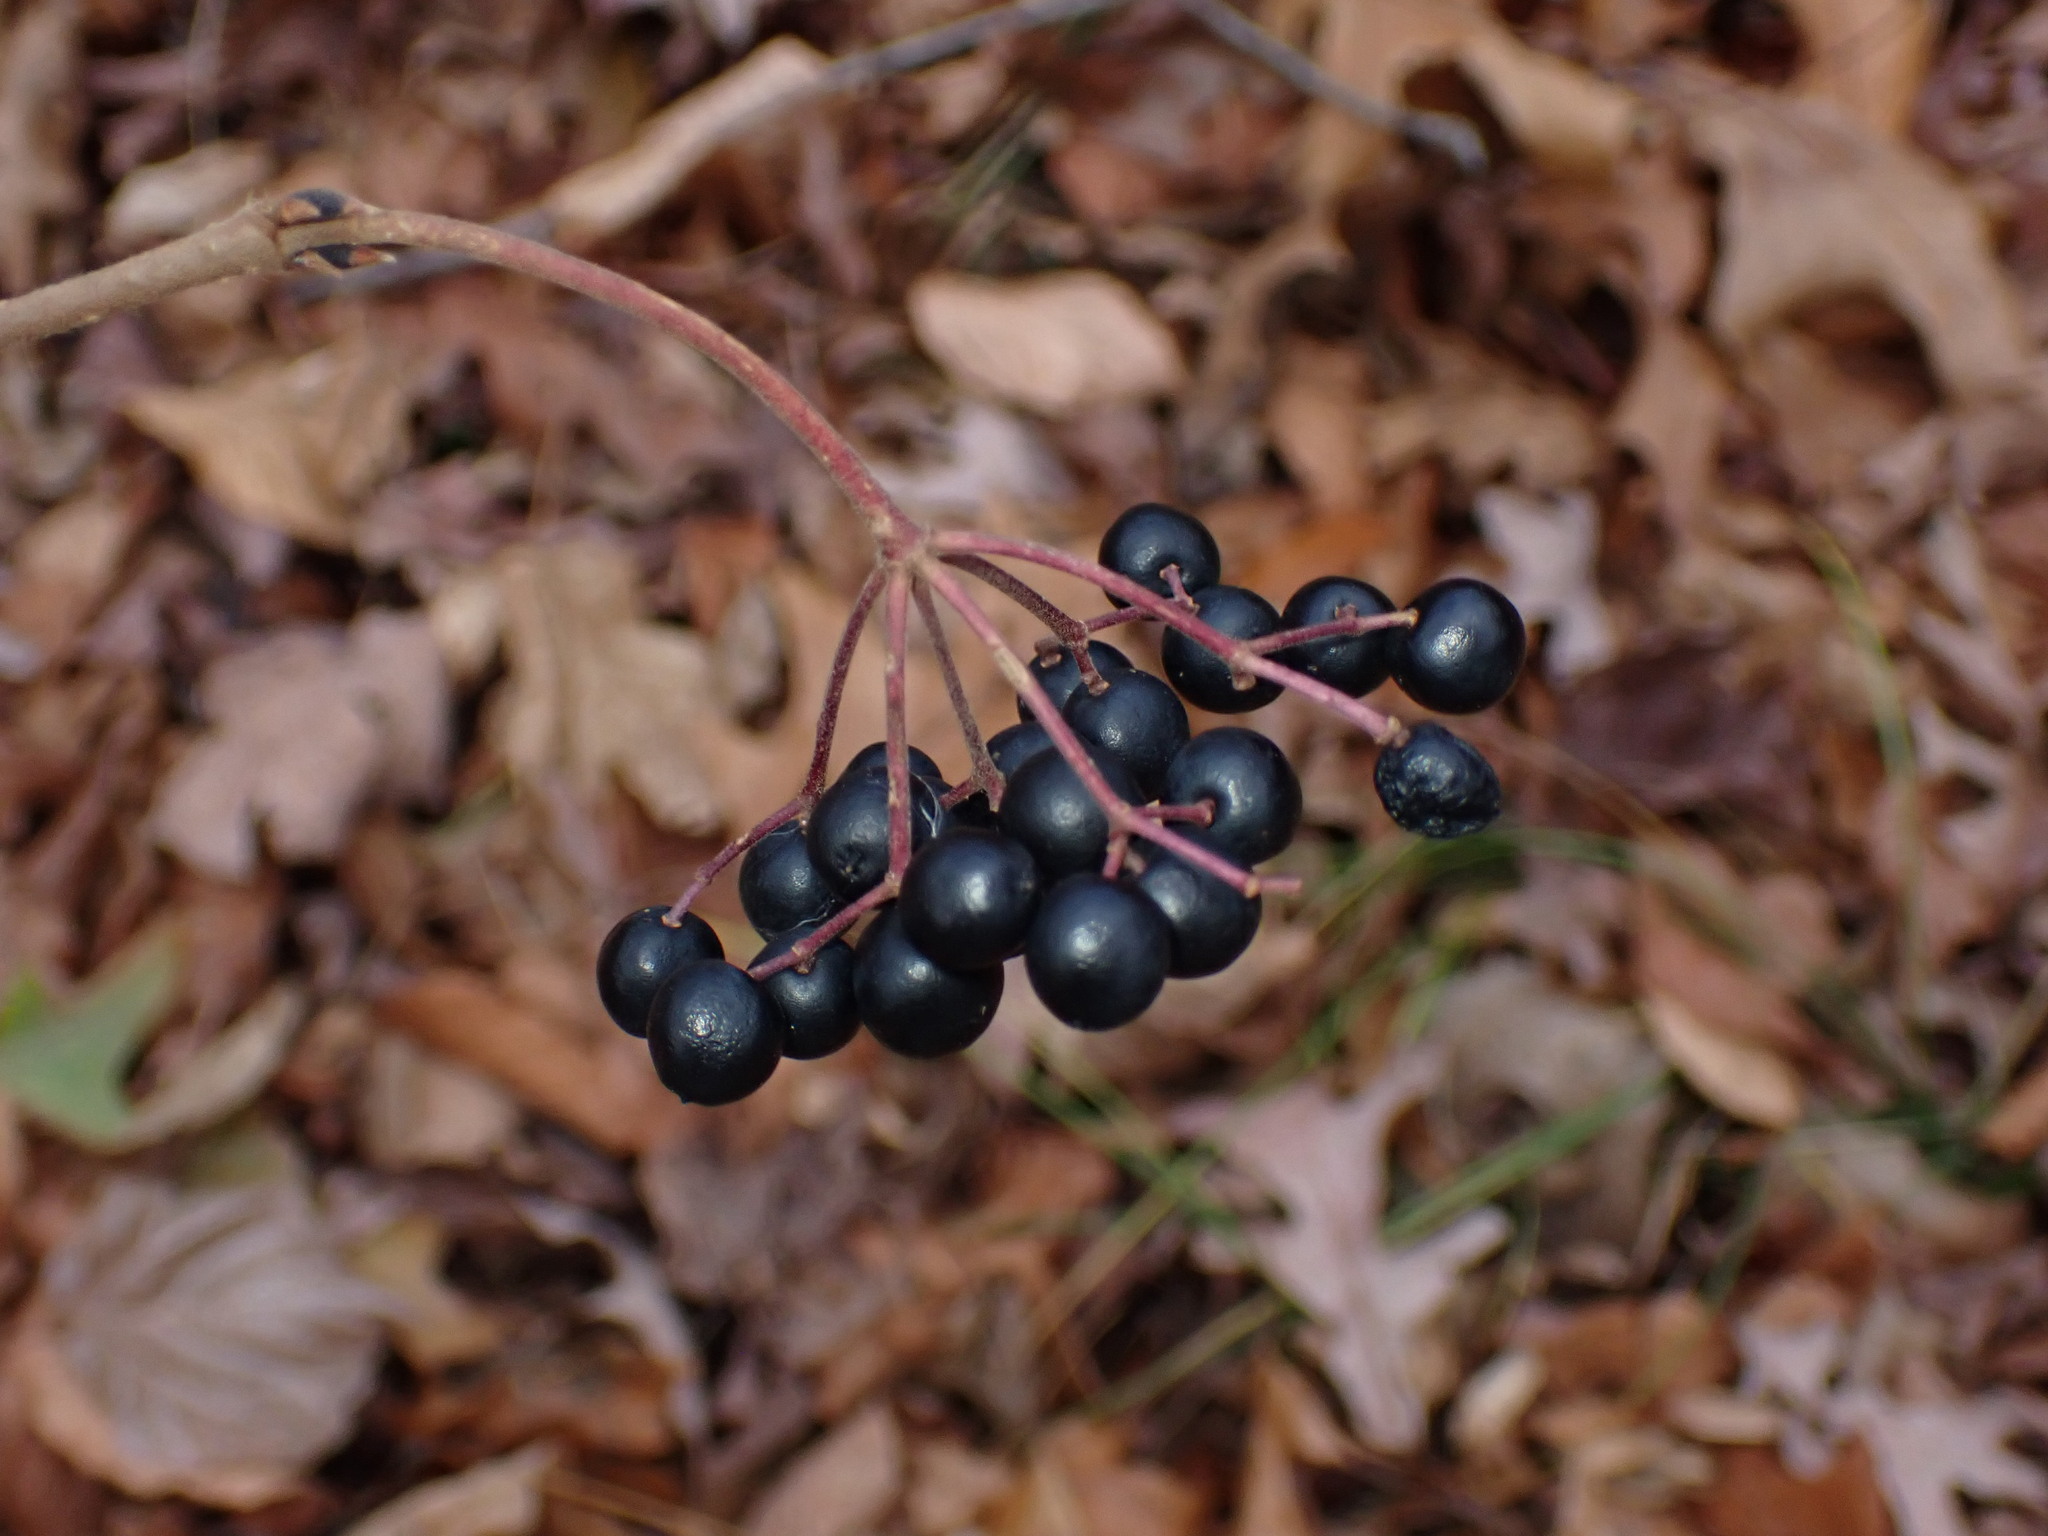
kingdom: Plantae
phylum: Tracheophyta
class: Magnoliopsida
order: Dipsacales
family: Viburnaceae
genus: Viburnum
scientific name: Viburnum acerifolium
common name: Dockmackie
